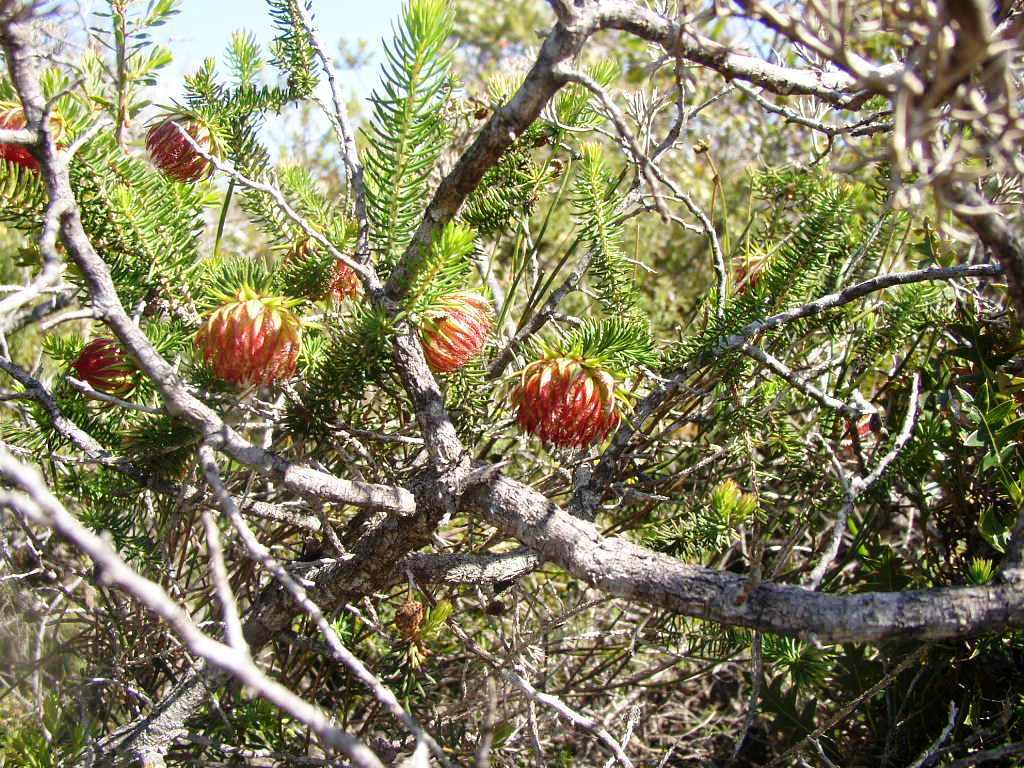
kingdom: Plantae
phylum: Tracheophyta
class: Magnoliopsida
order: Myrtales
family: Myrtaceae
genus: Darwinia
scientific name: Darwinia neildiana
